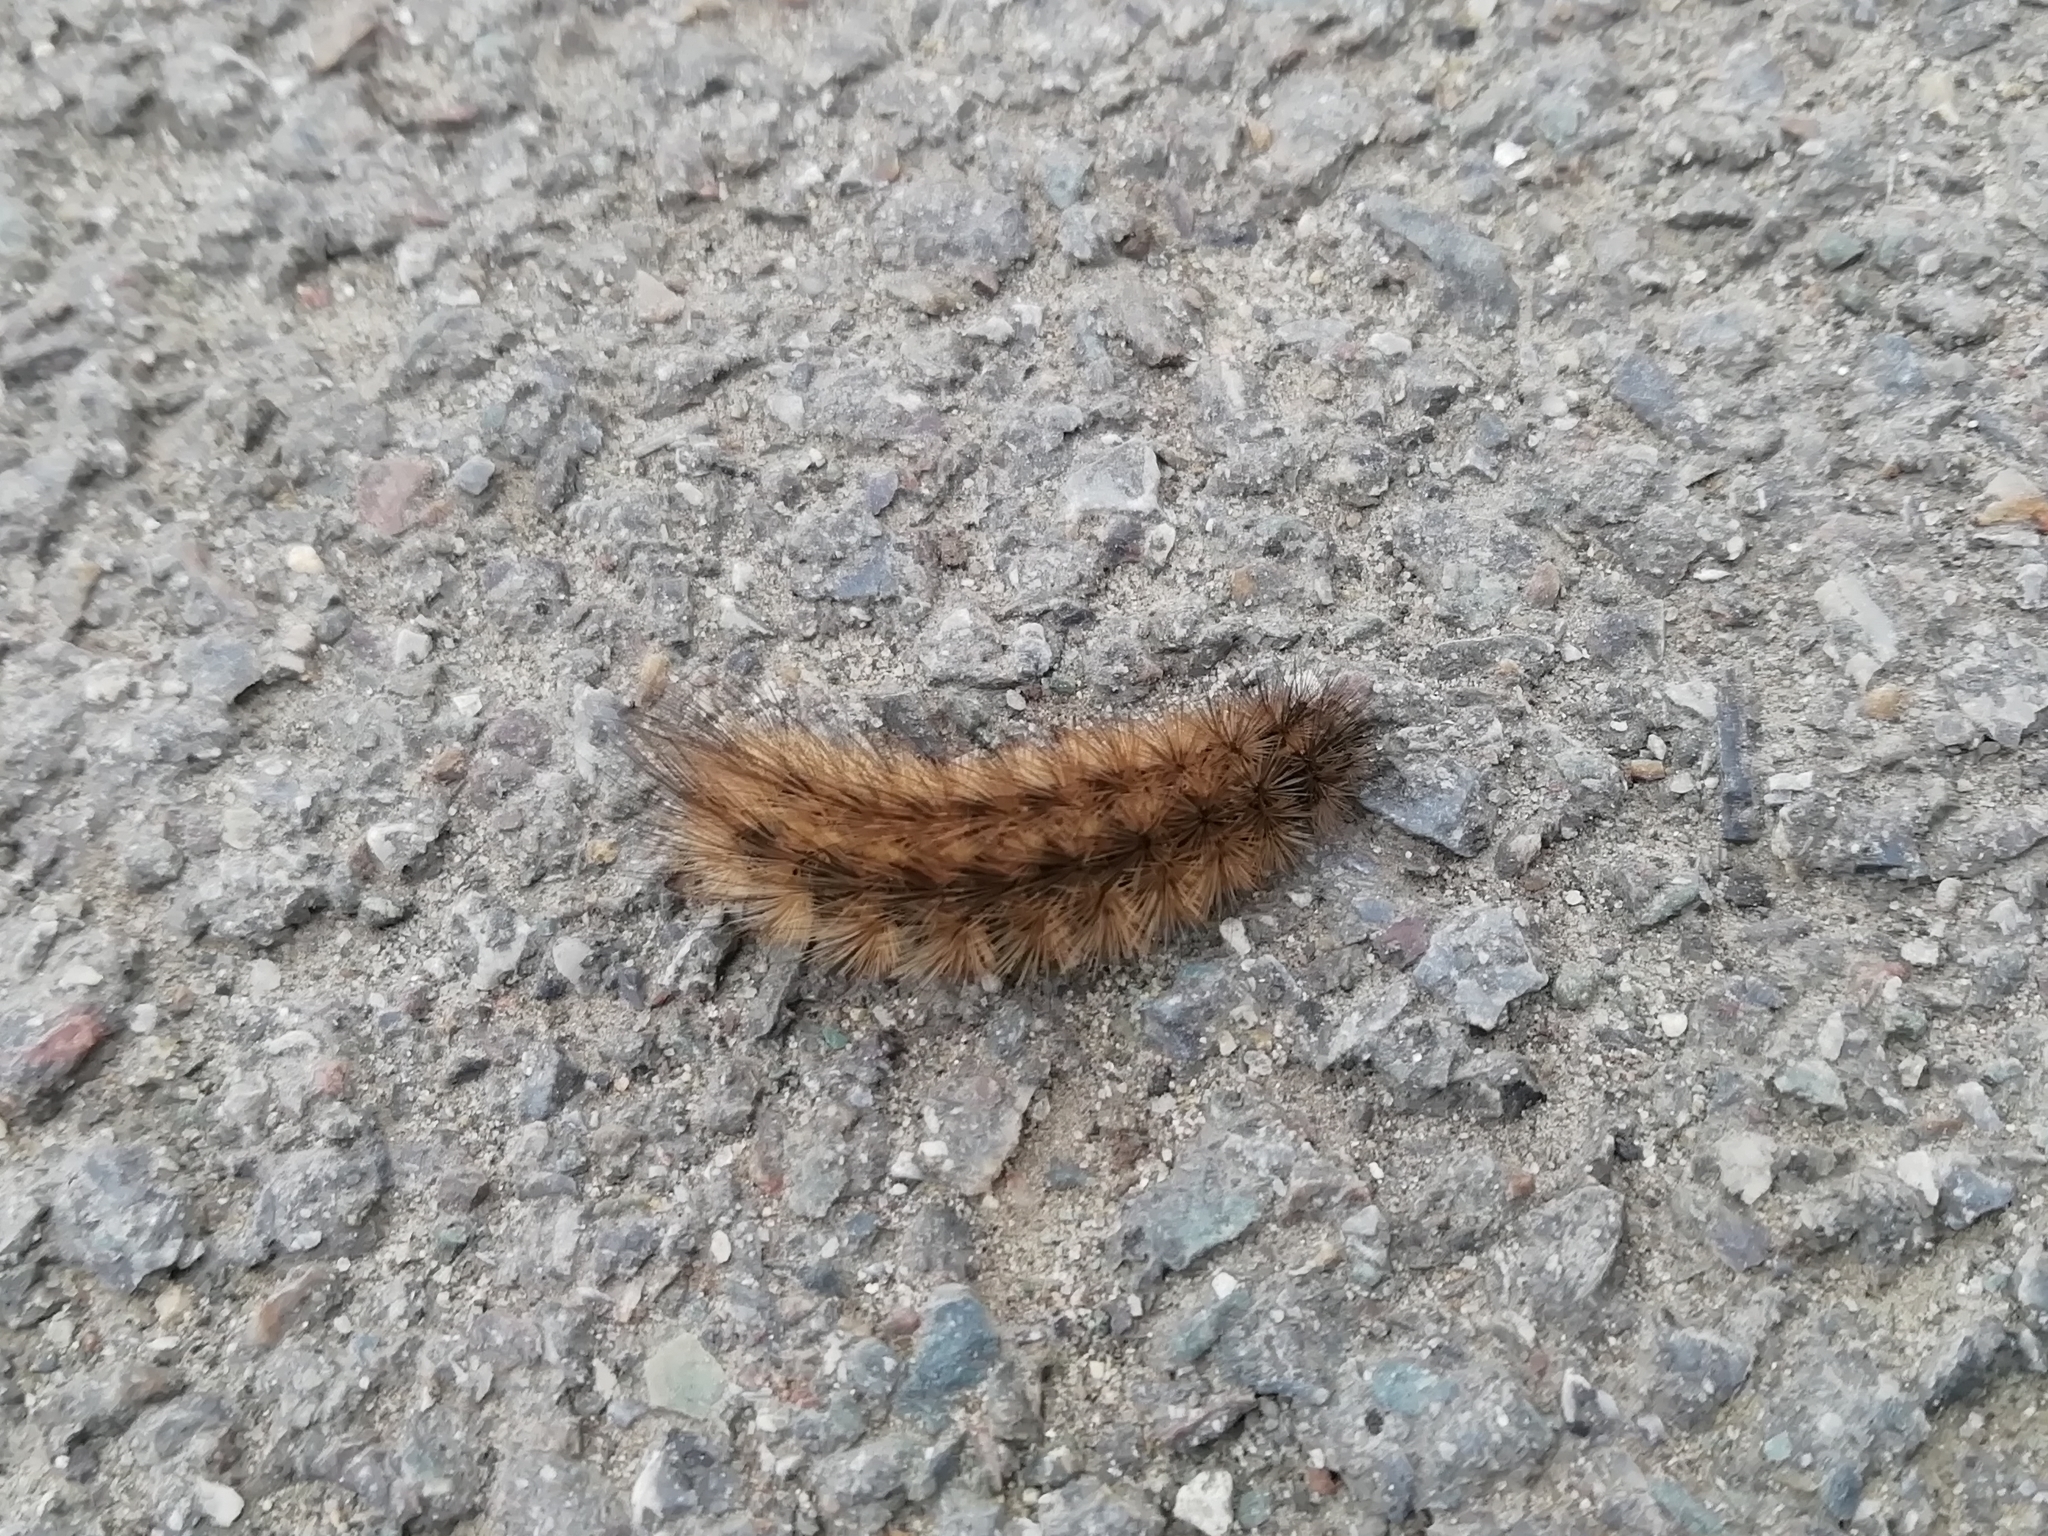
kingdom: Animalia
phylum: Arthropoda
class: Insecta
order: Lepidoptera
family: Erebidae
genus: Phragmatobia
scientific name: Phragmatobia fuliginosa
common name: Ruby tiger
